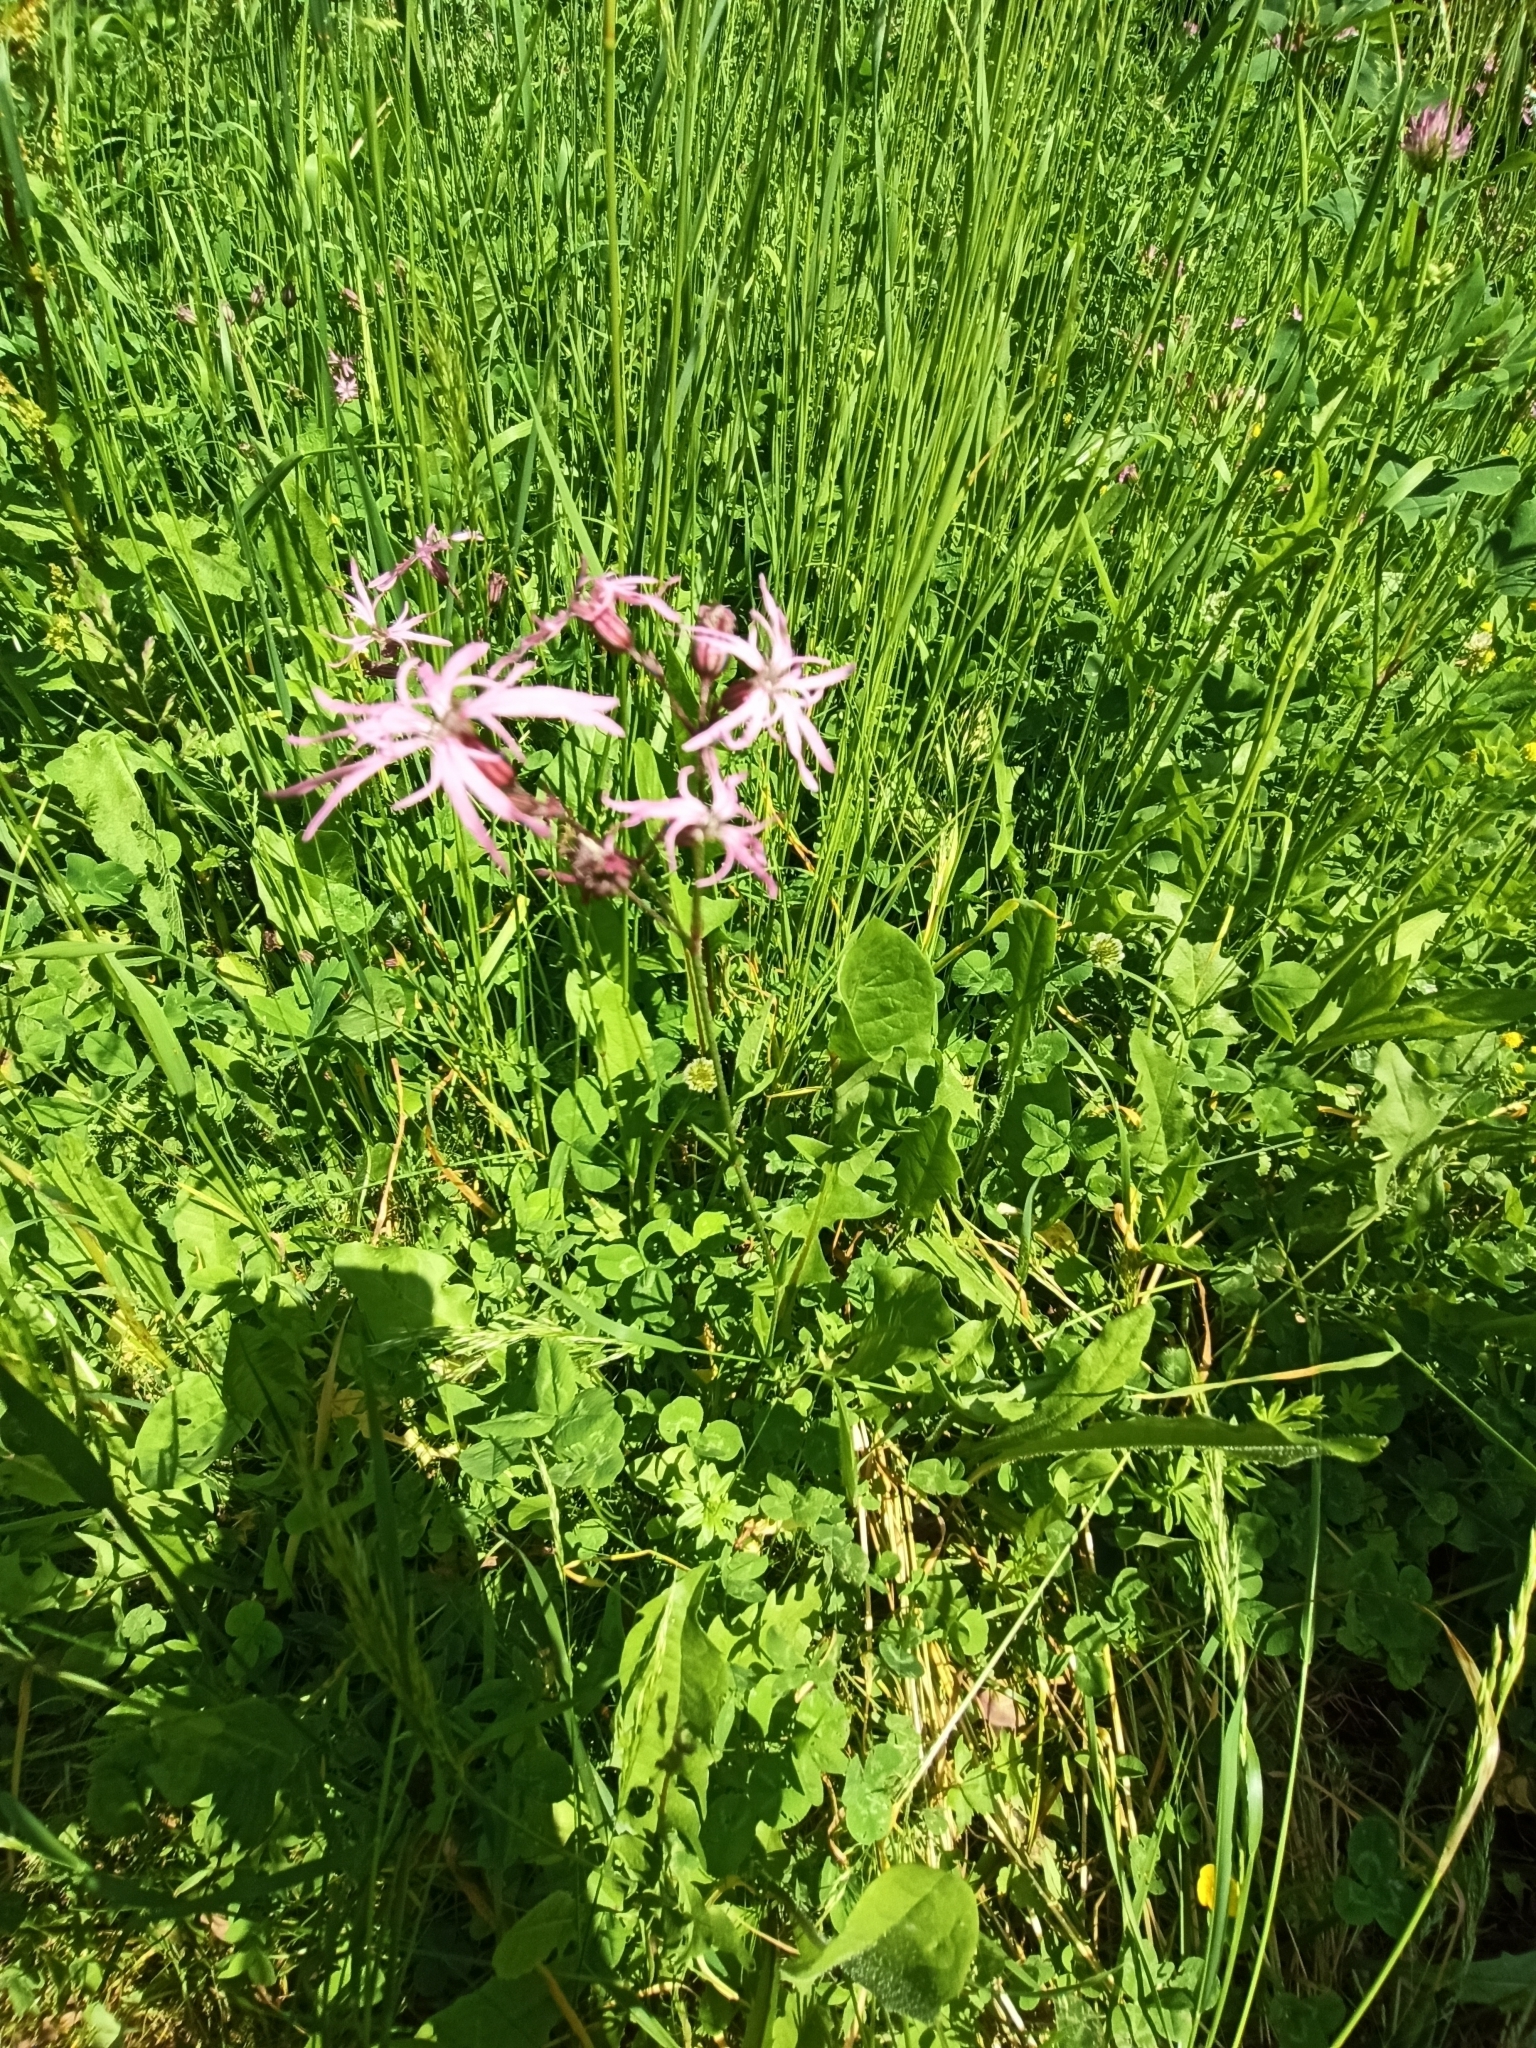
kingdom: Plantae
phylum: Tracheophyta
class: Magnoliopsida
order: Caryophyllales
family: Caryophyllaceae
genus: Silene
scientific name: Silene flos-cuculi
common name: Ragged-robin
